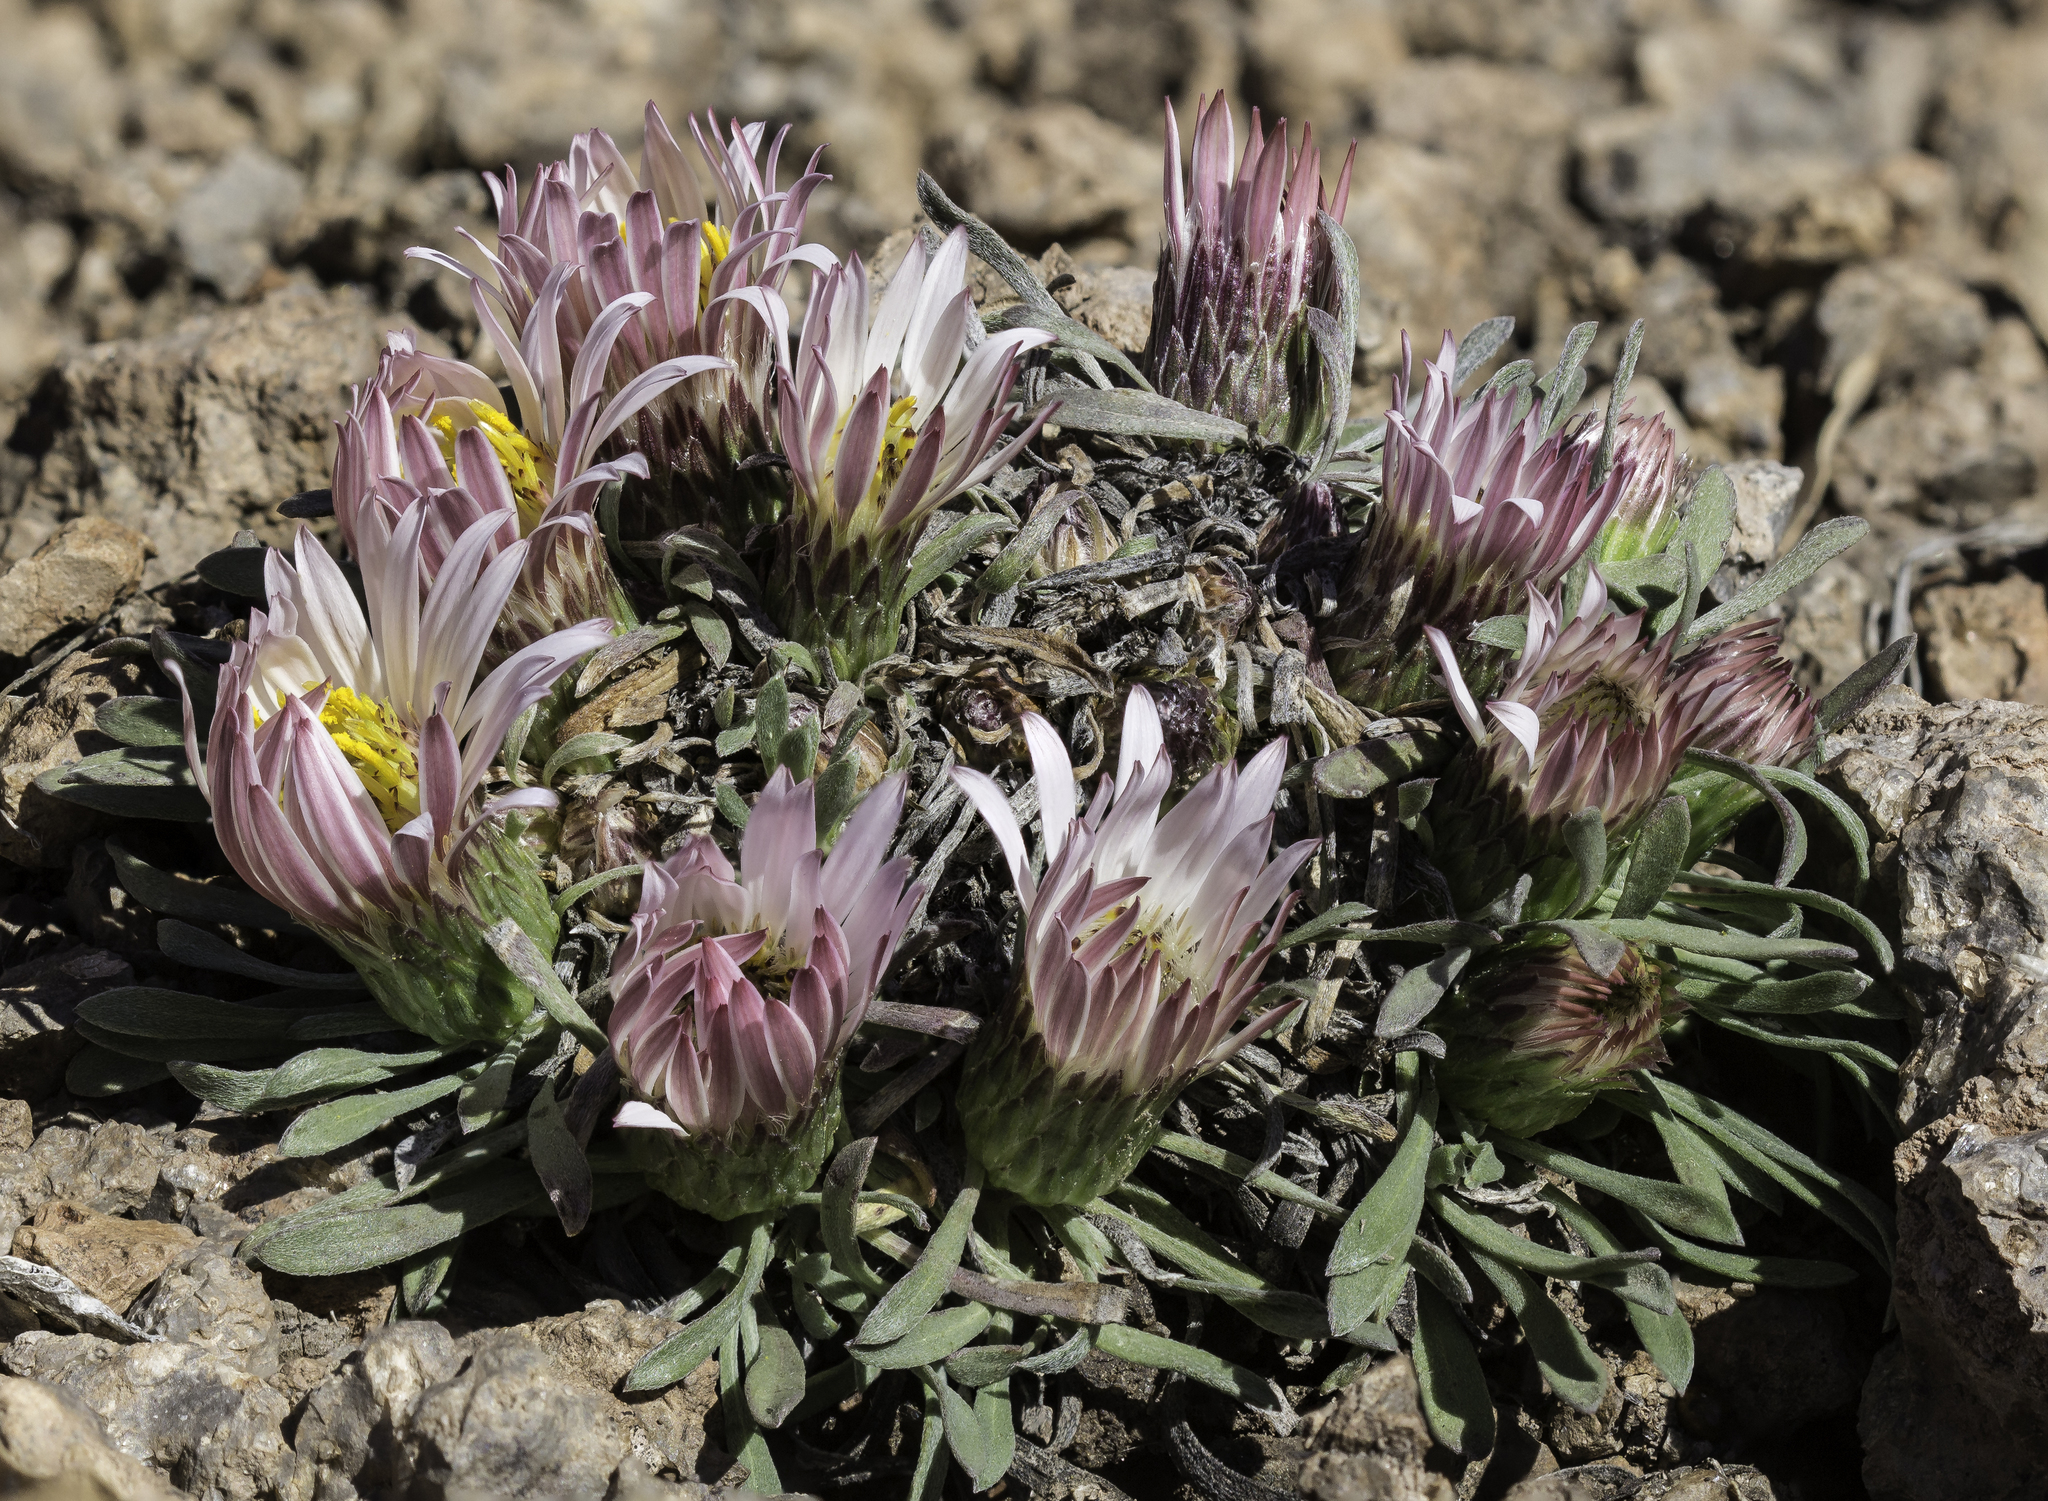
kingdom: Plantae
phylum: Tracheophyta
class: Magnoliopsida
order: Asterales
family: Asteraceae
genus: Townsendia
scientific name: Townsendia exscapa
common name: Dwarf townsendia
